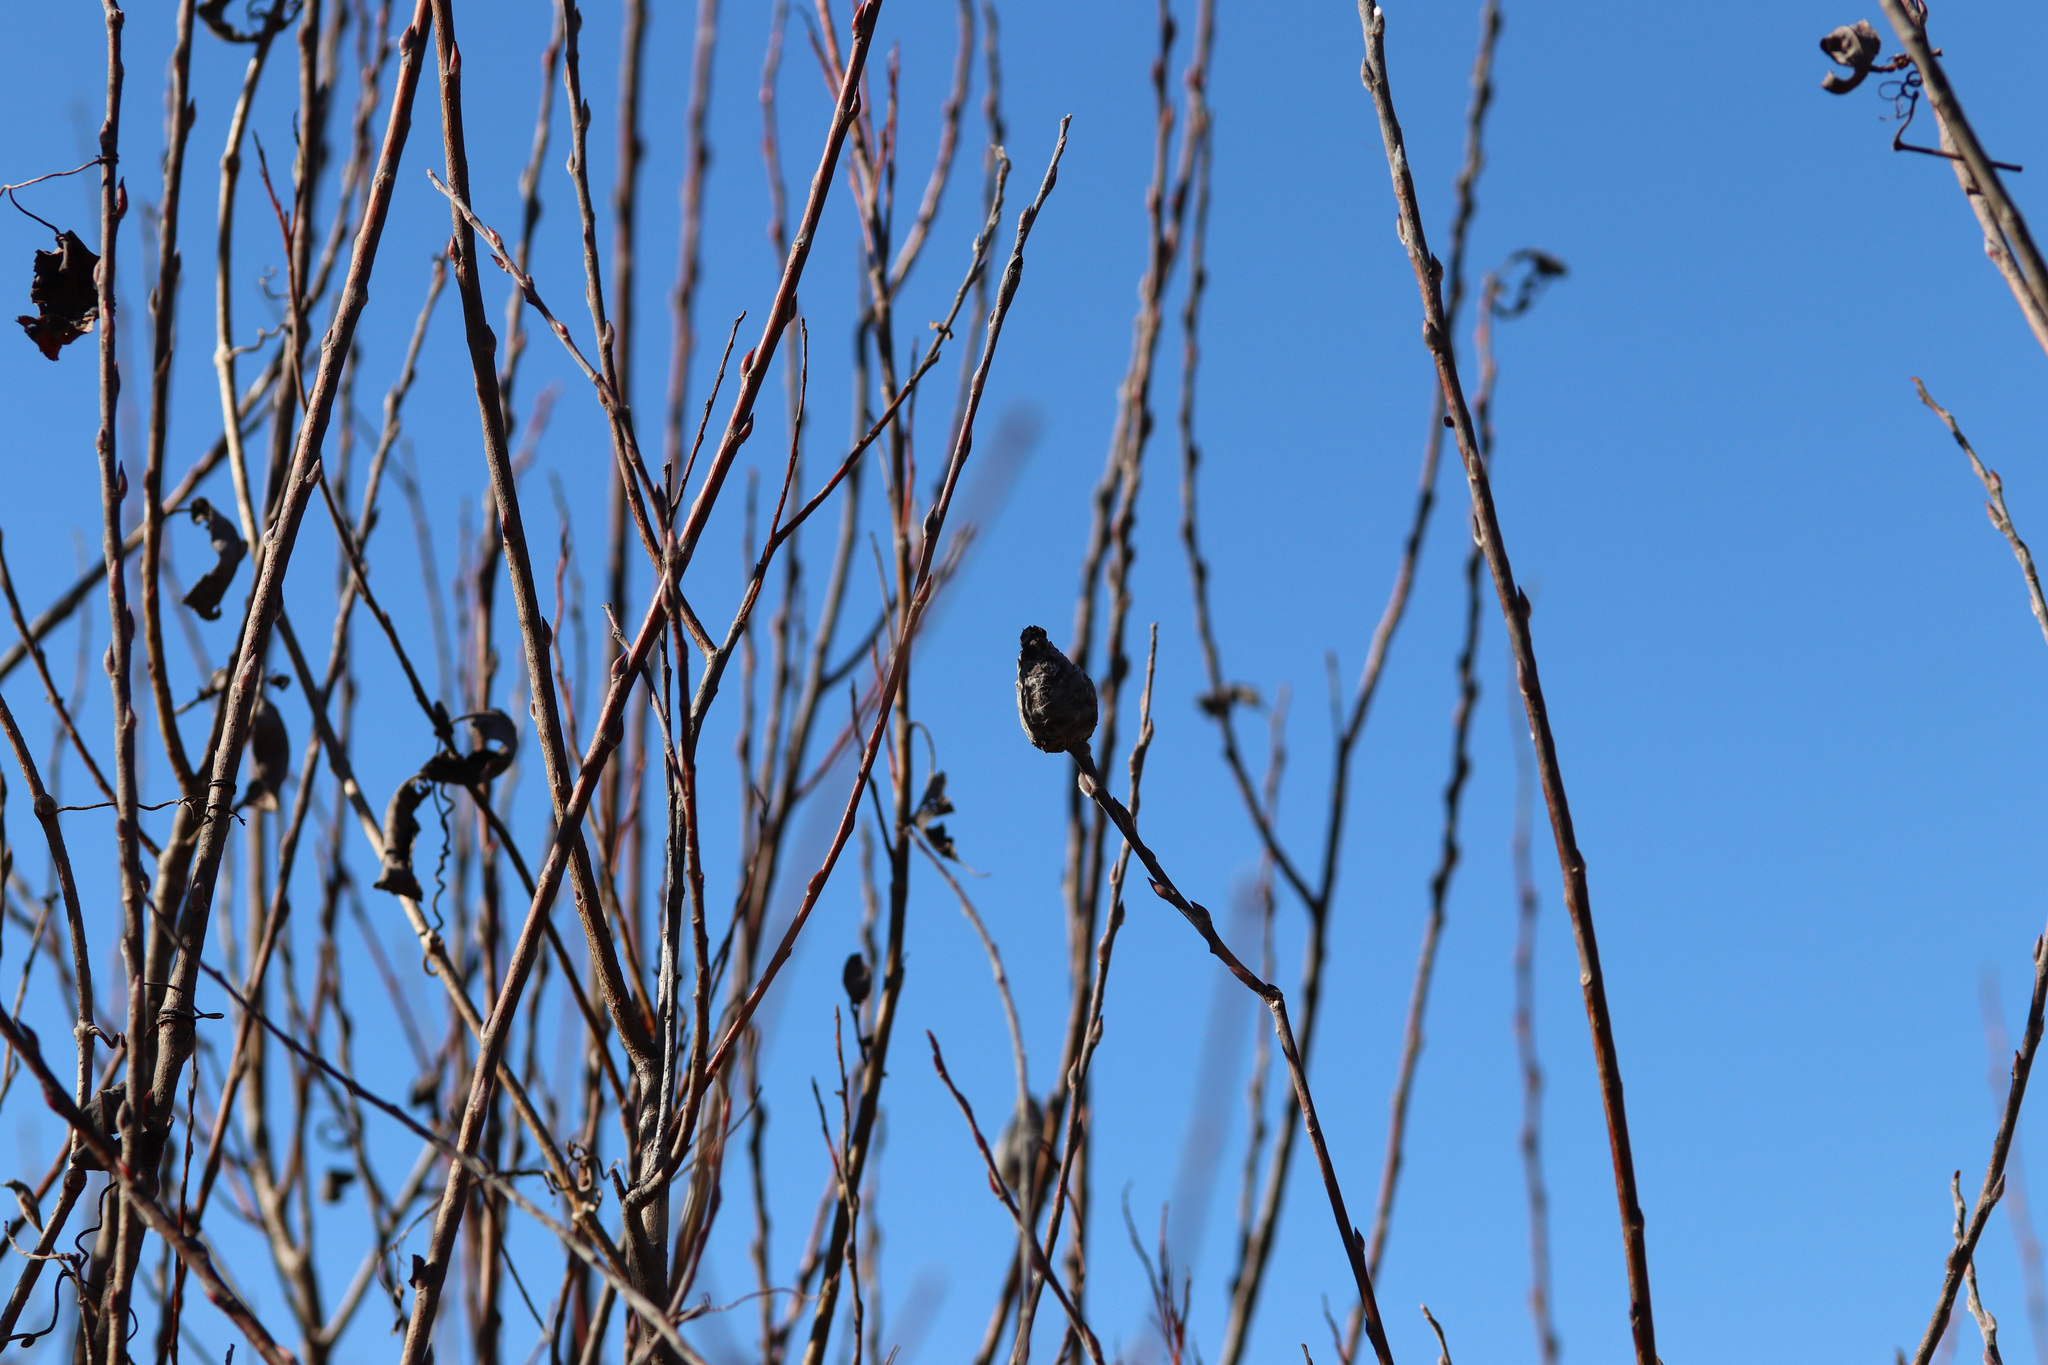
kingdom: Animalia
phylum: Arthropoda
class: Insecta
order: Diptera
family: Cecidomyiidae
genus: Rabdophaga
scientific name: Rabdophaga strobiloides
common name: Willow pinecone gall midge
